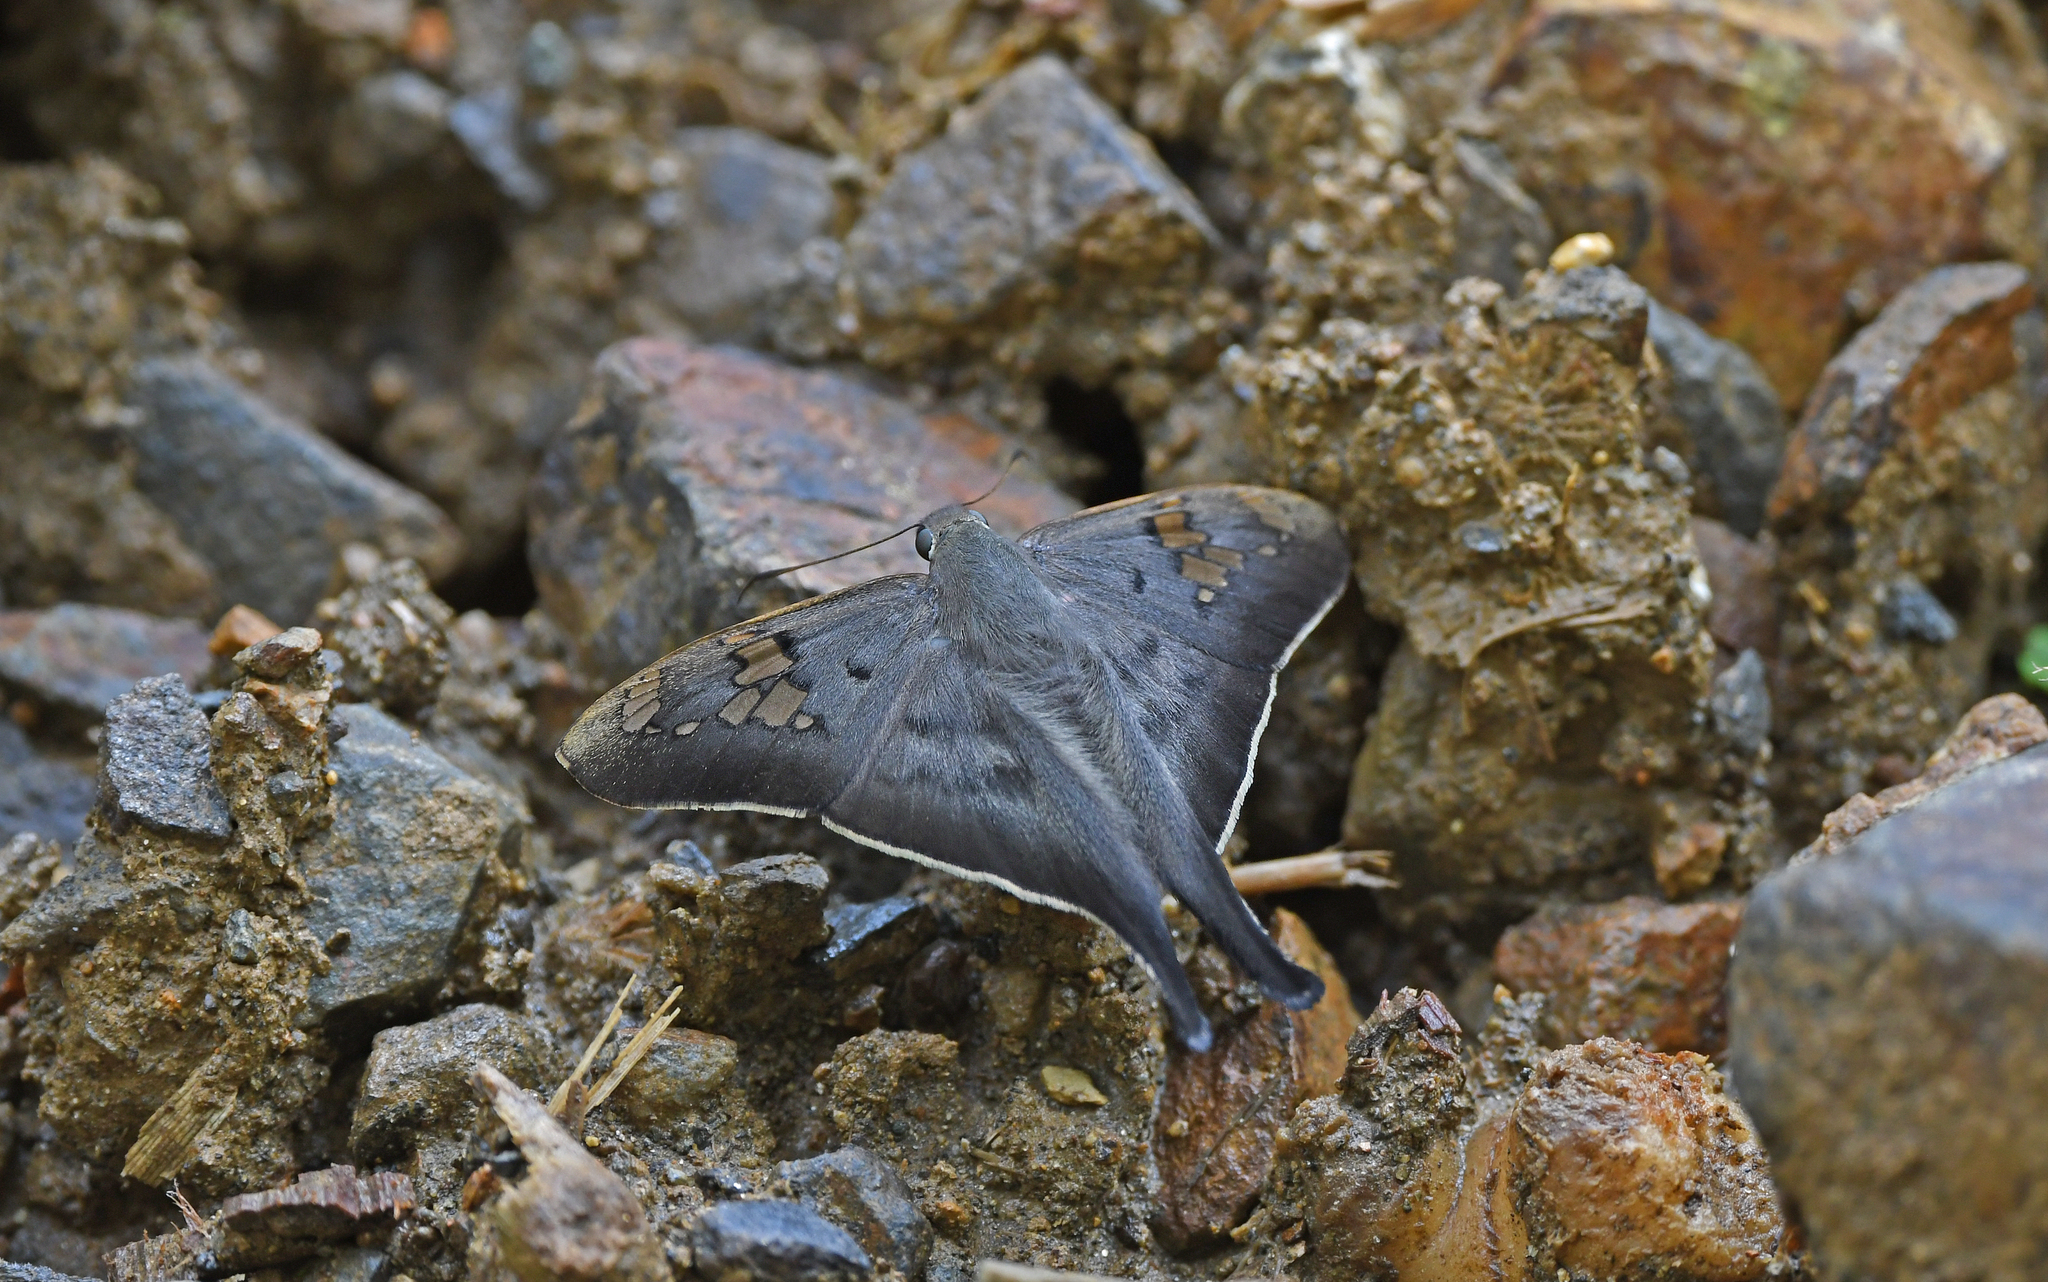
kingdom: Animalia
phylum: Arthropoda
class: Insecta
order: Lepidoptera
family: Hesperiidae
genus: Ectomis
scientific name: Ectomis
